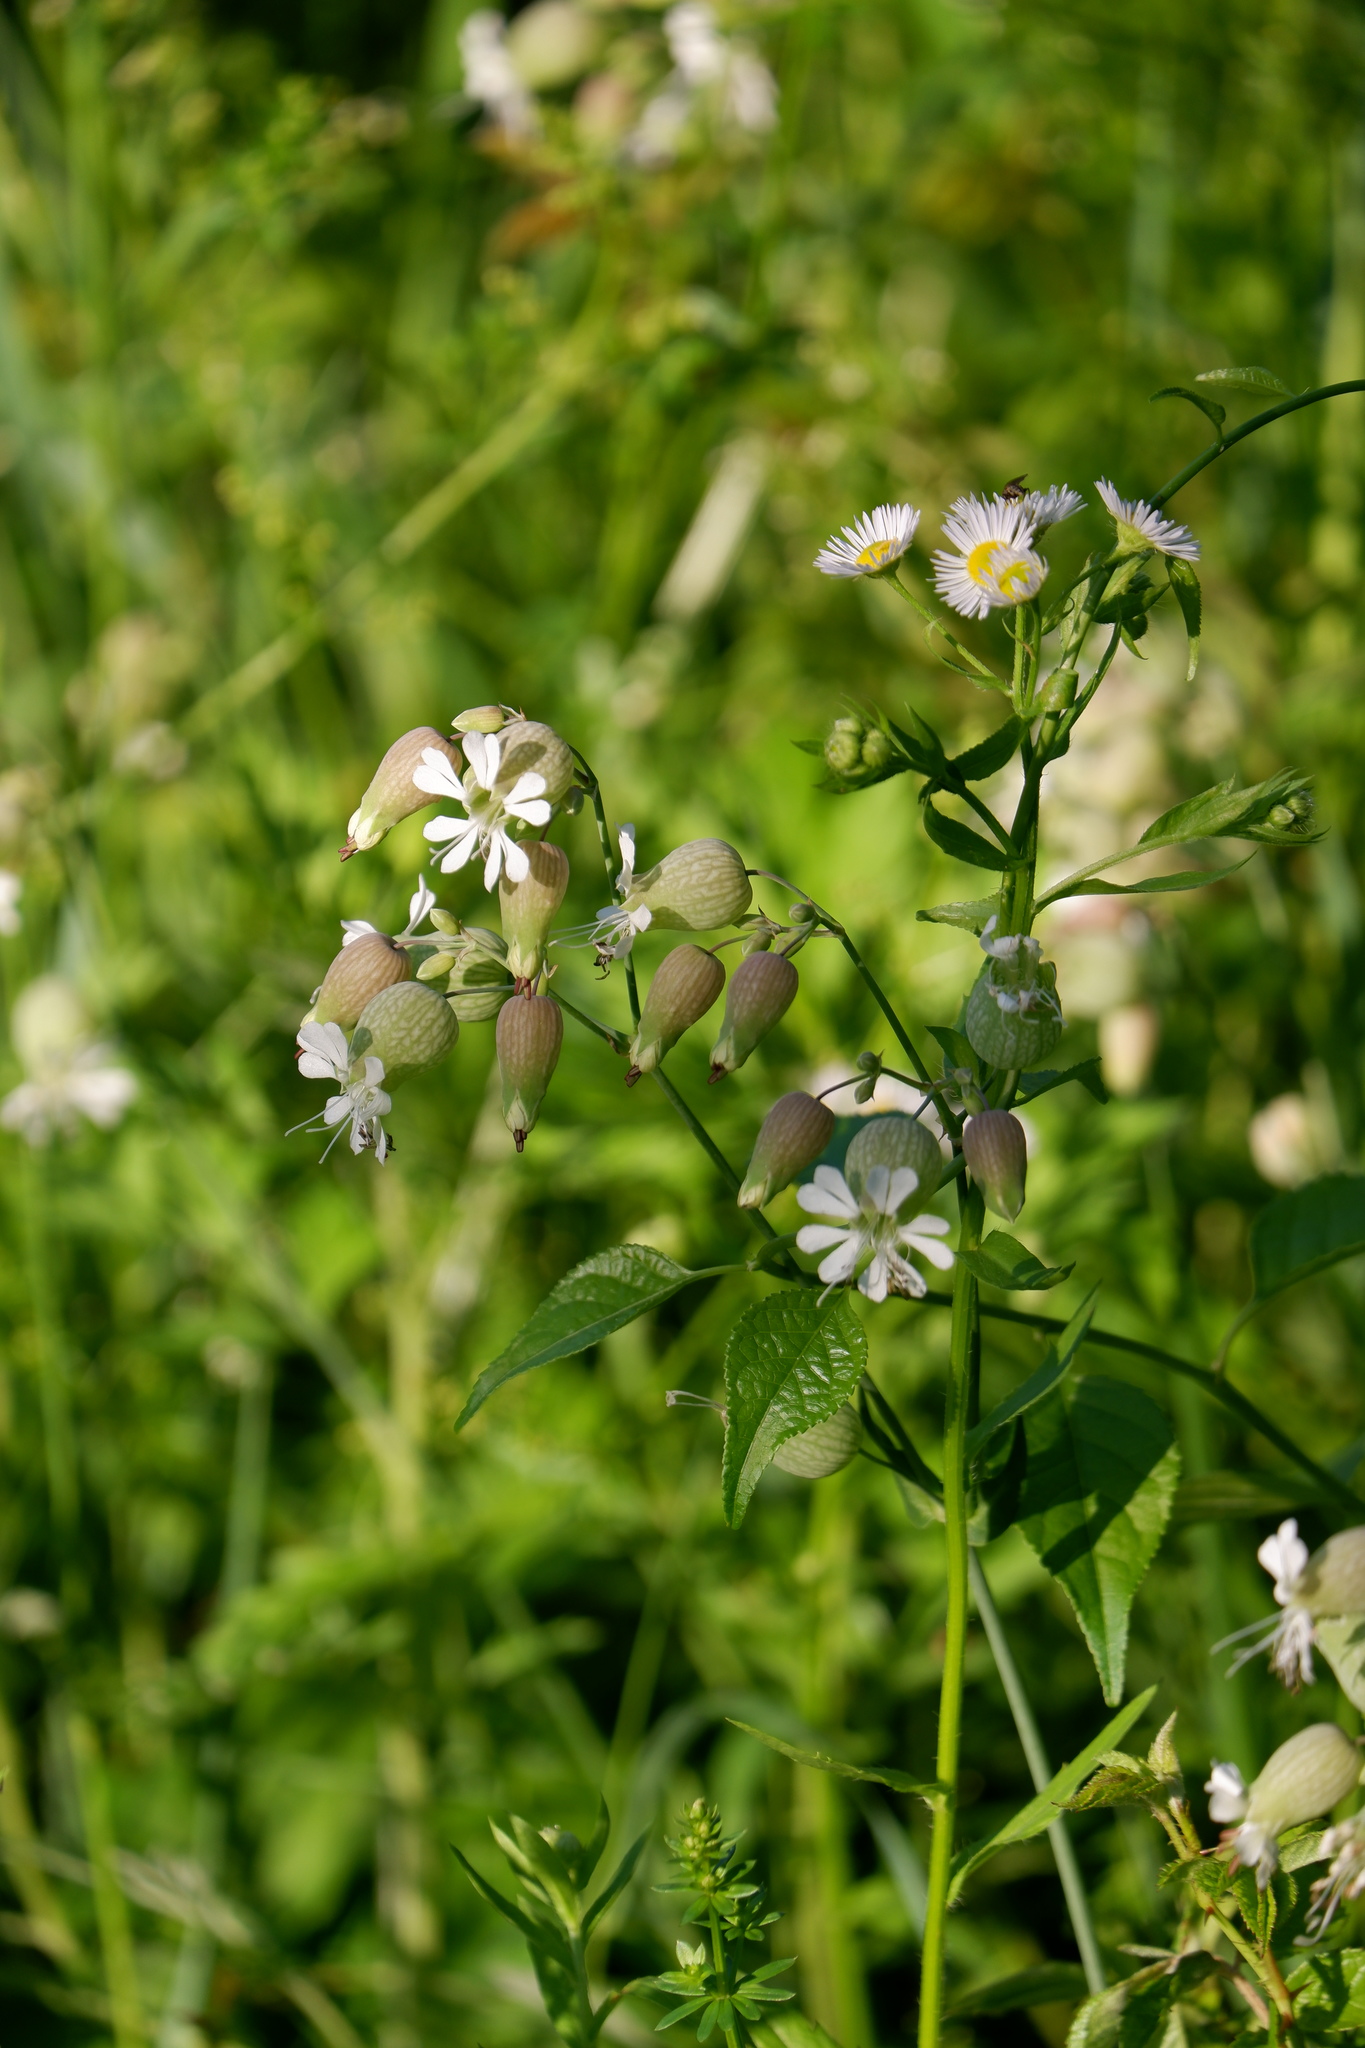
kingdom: Plantae
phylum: Tracheophyta
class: Magnoliopsida
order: Caryophyllales
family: Caryophyllaceae
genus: Silene
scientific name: Silene vulgaris
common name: Bladder campion
